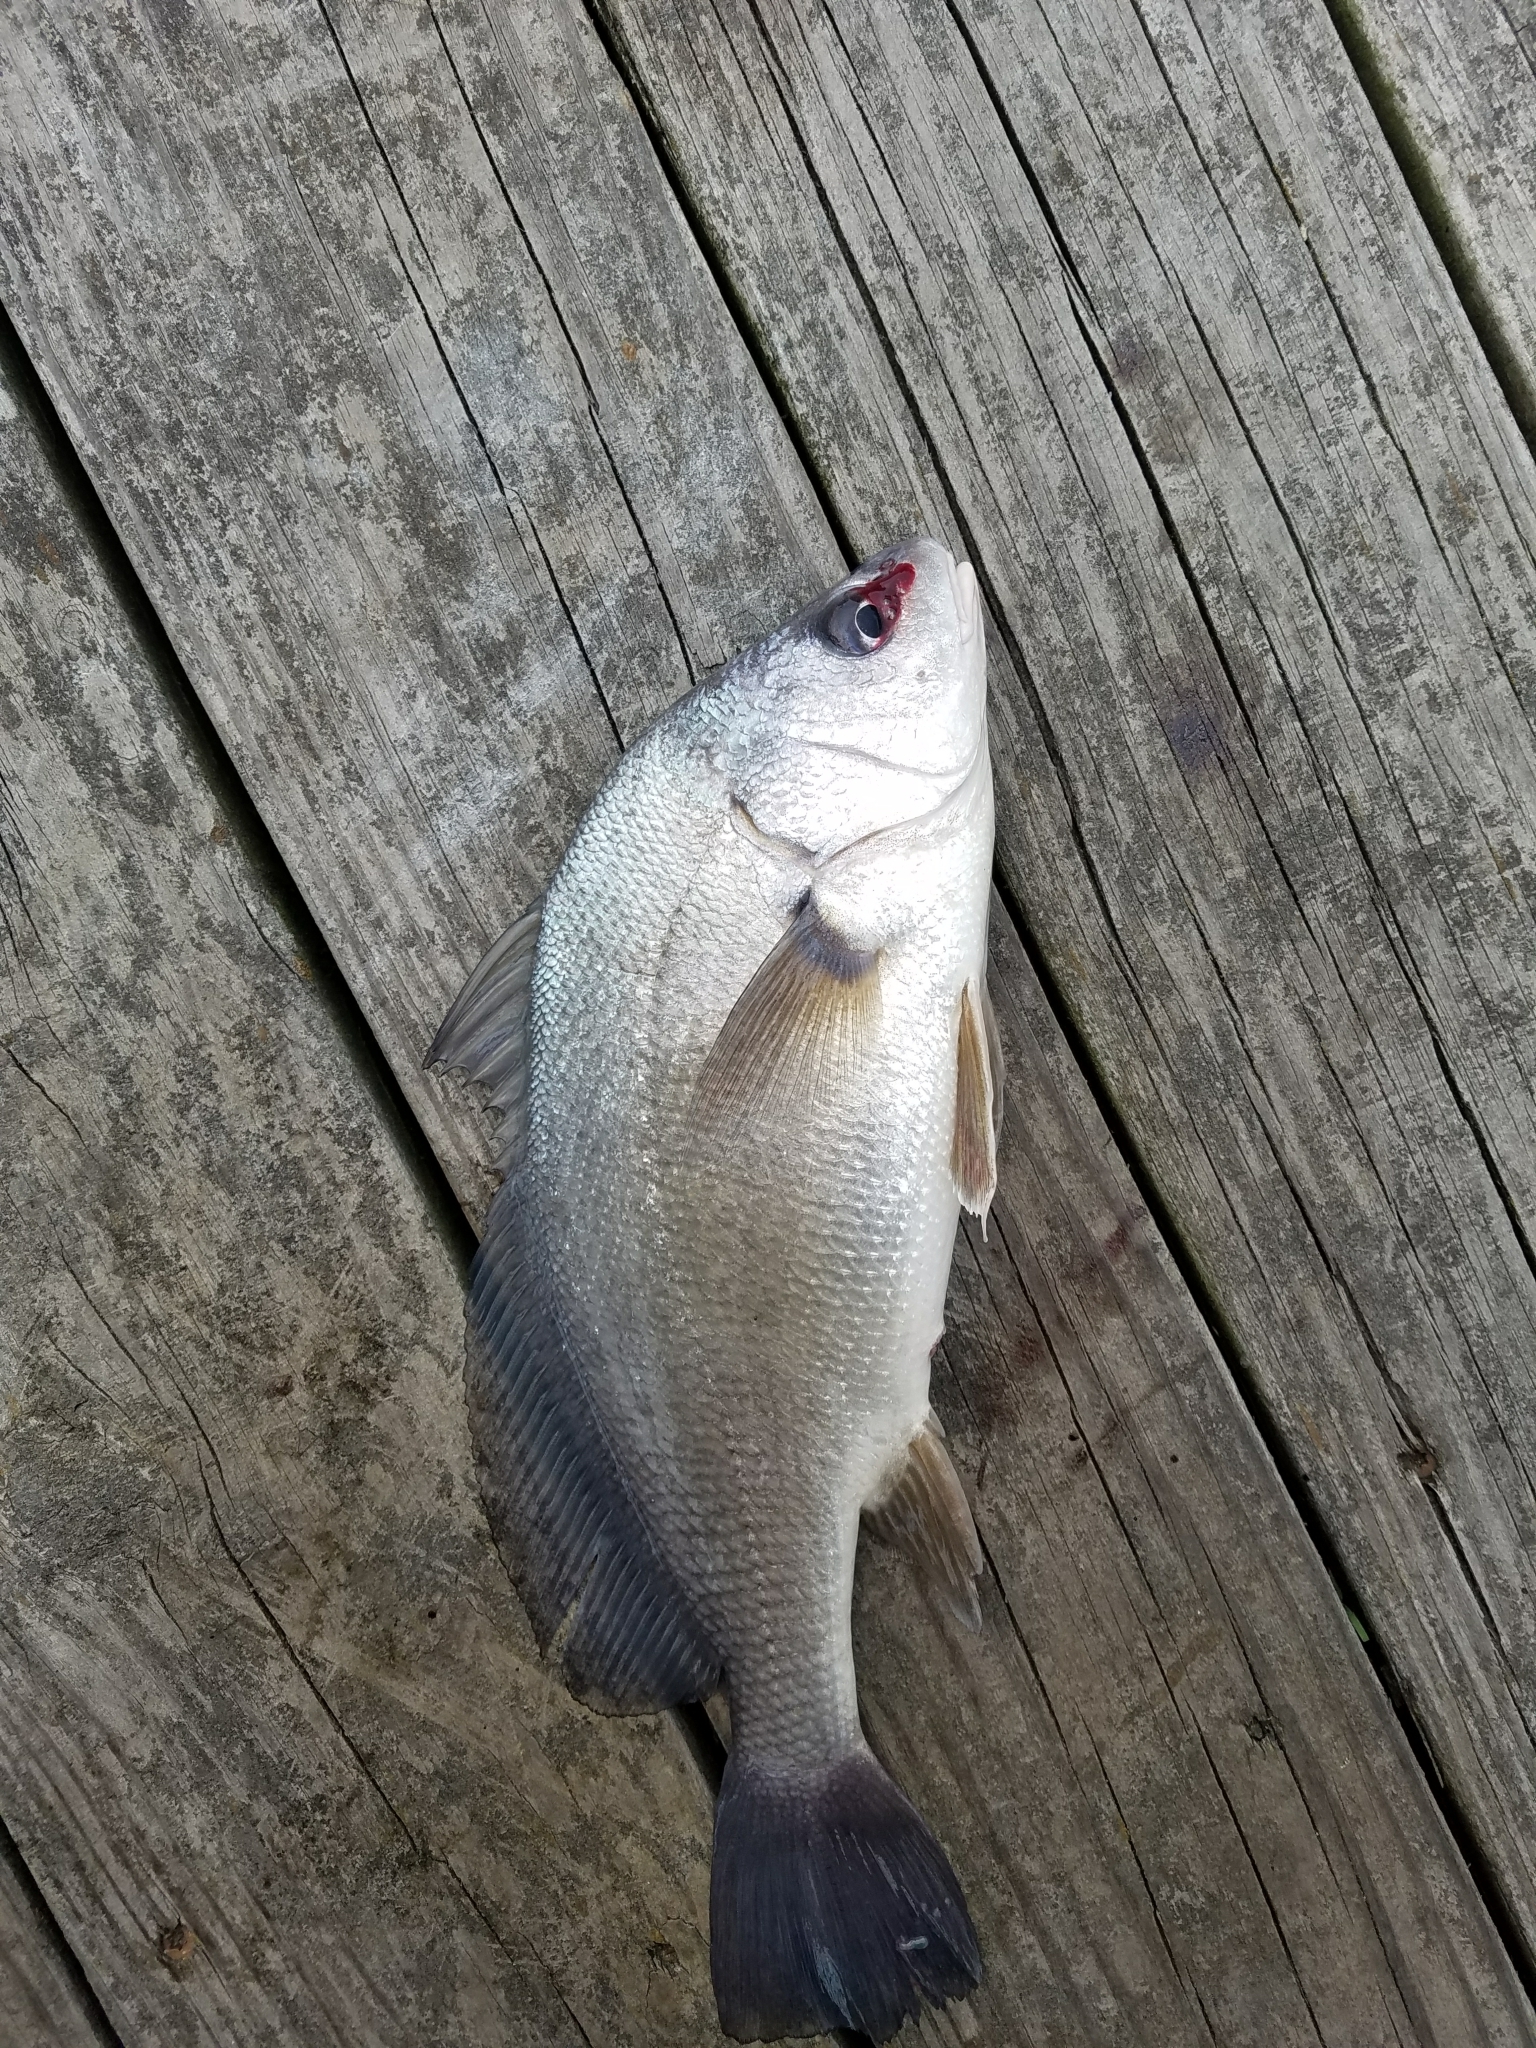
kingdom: Animalia
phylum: Chordata
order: Perciformes
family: Sciaenidae
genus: Aplodinotus
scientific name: Aplodinotus grunniens
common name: Freshwater drum
